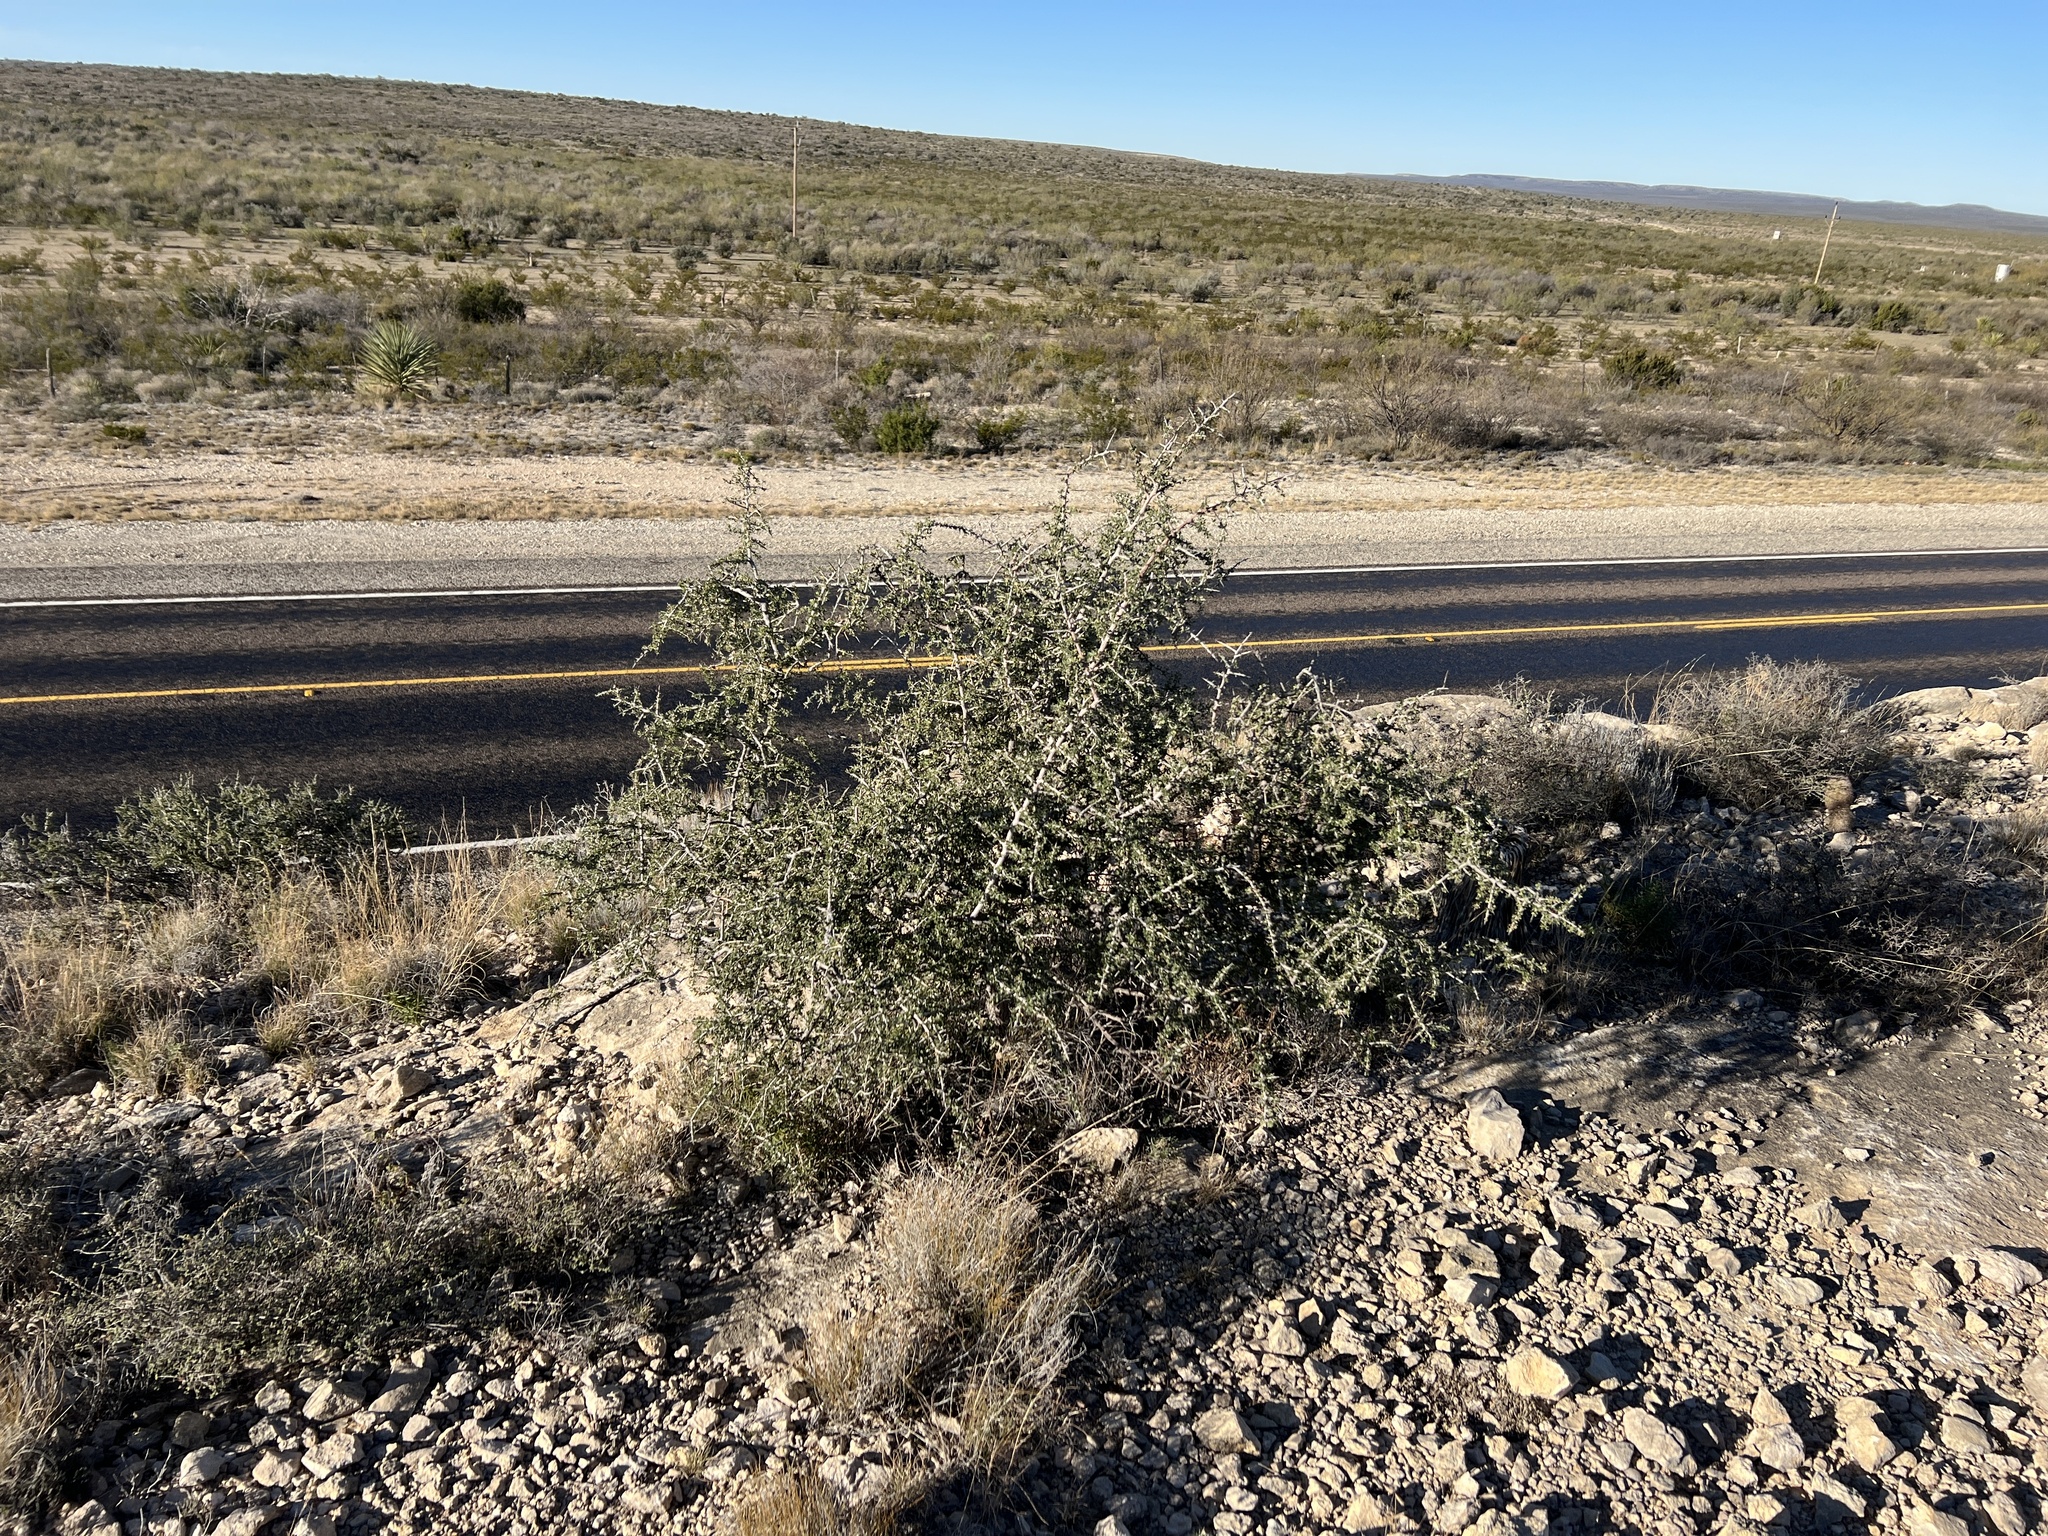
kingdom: Plantae
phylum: Tracheophyta
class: Magnoliopsida
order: Rosales
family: Rhamnaceae
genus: Condalia
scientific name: Condalia warnockii
